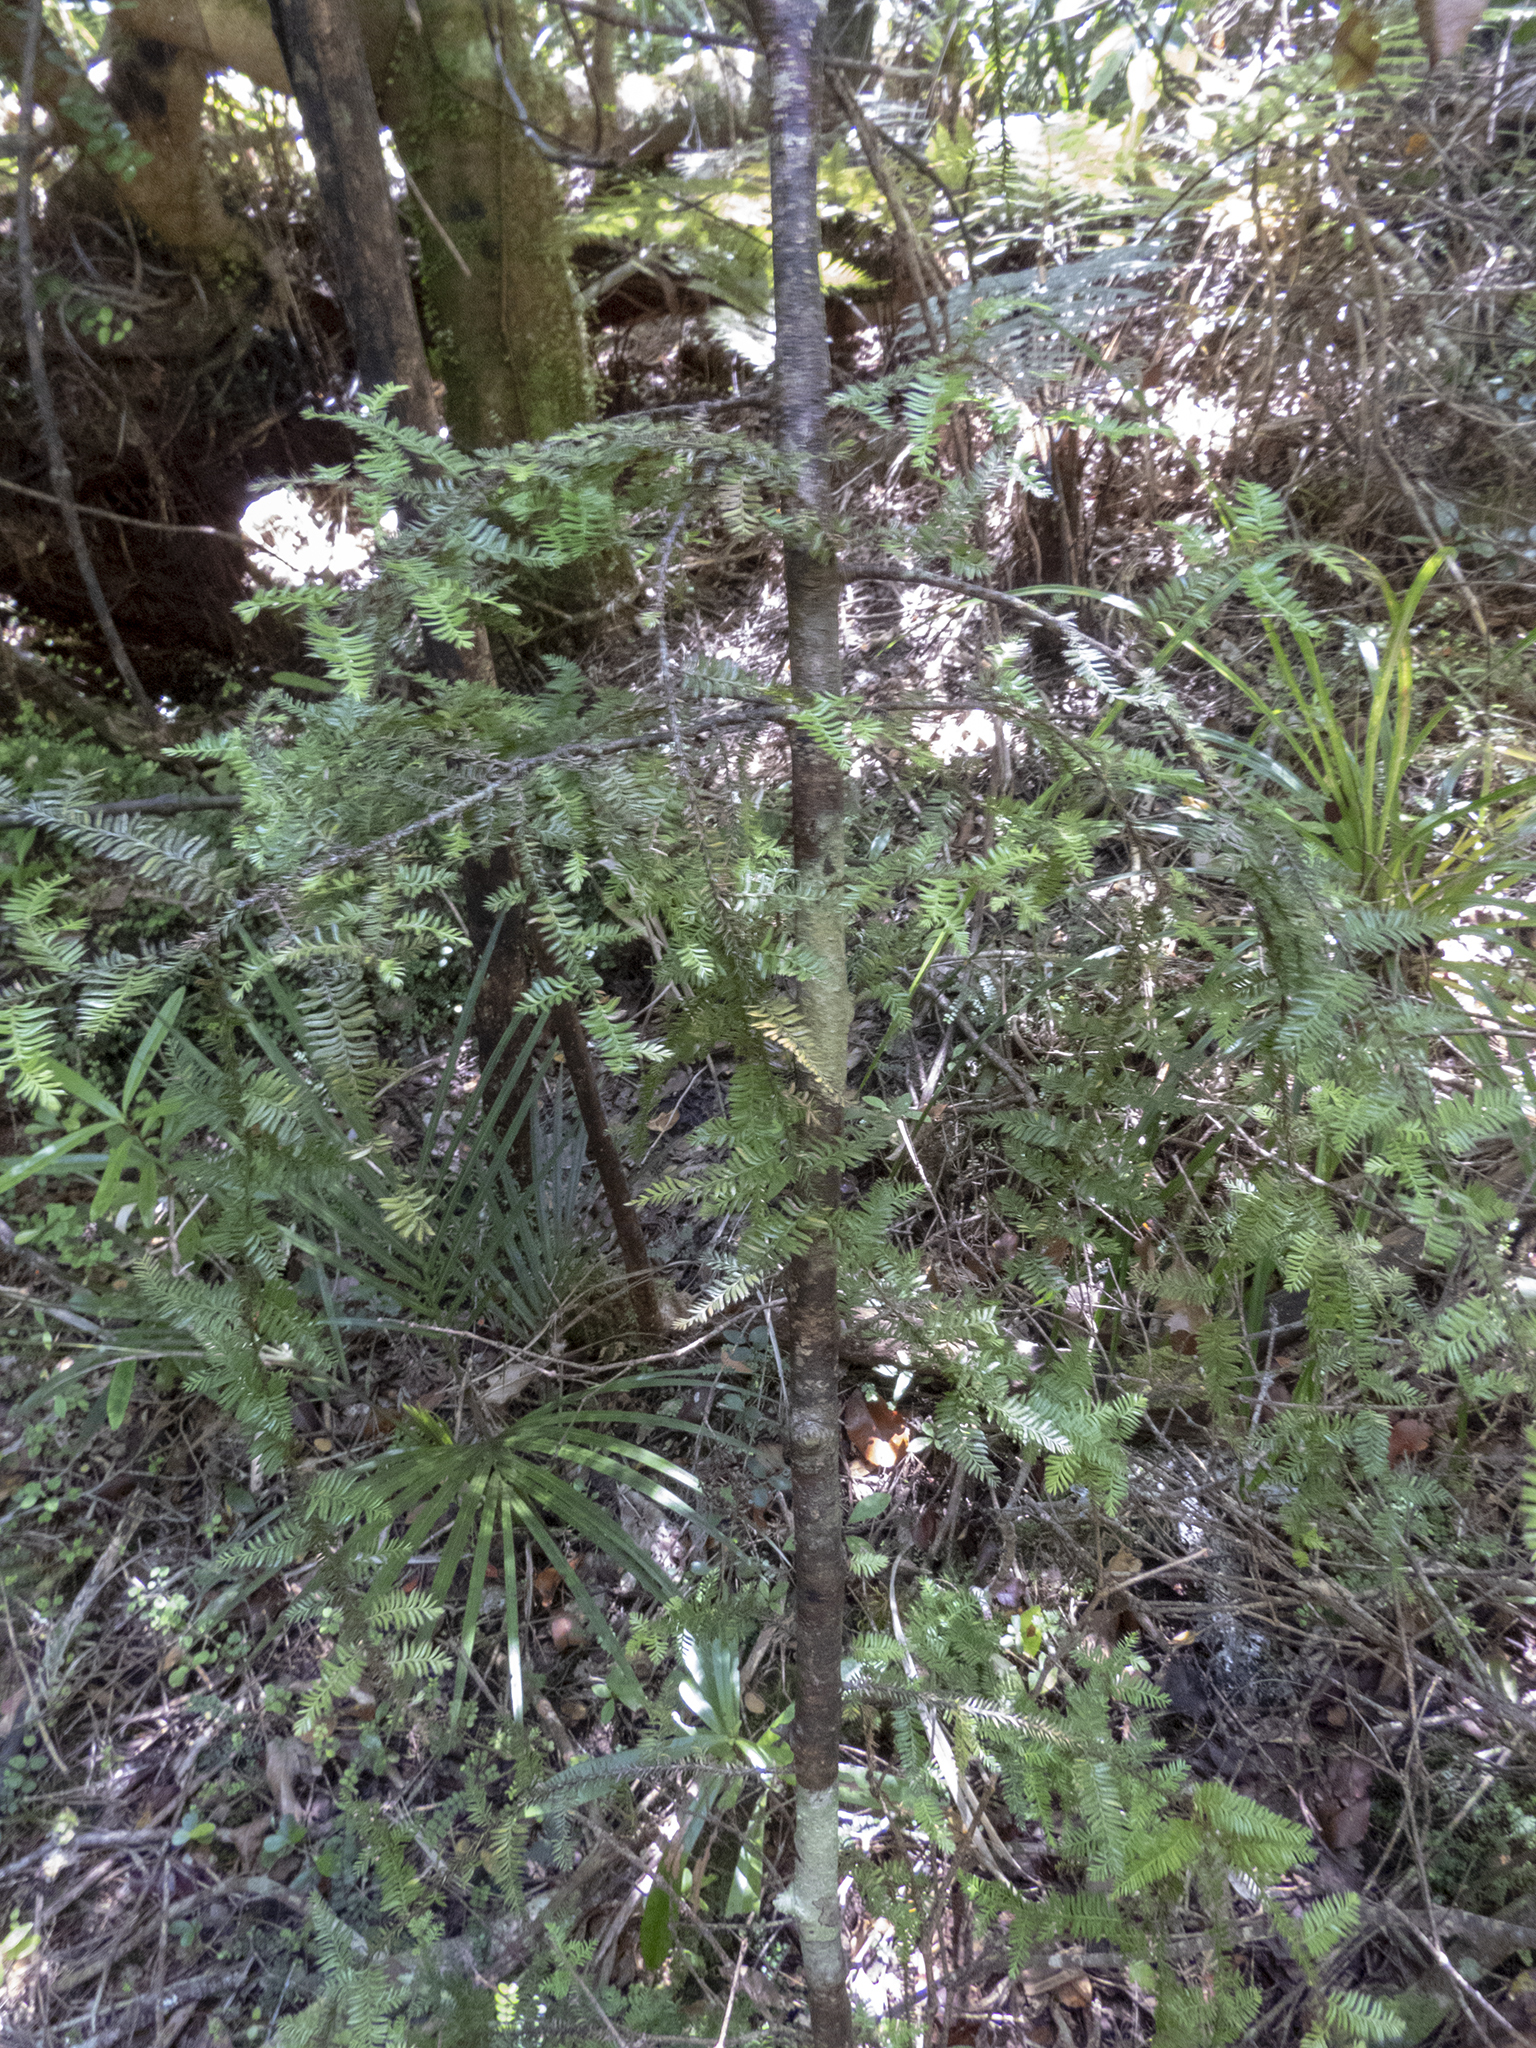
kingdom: Plantae
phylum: Tracheophyta
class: Pinopsida
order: Pinales
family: Podocarpaceae
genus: Dacrycarpus
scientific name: Dacrycarpus dacrydioides
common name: White pine
